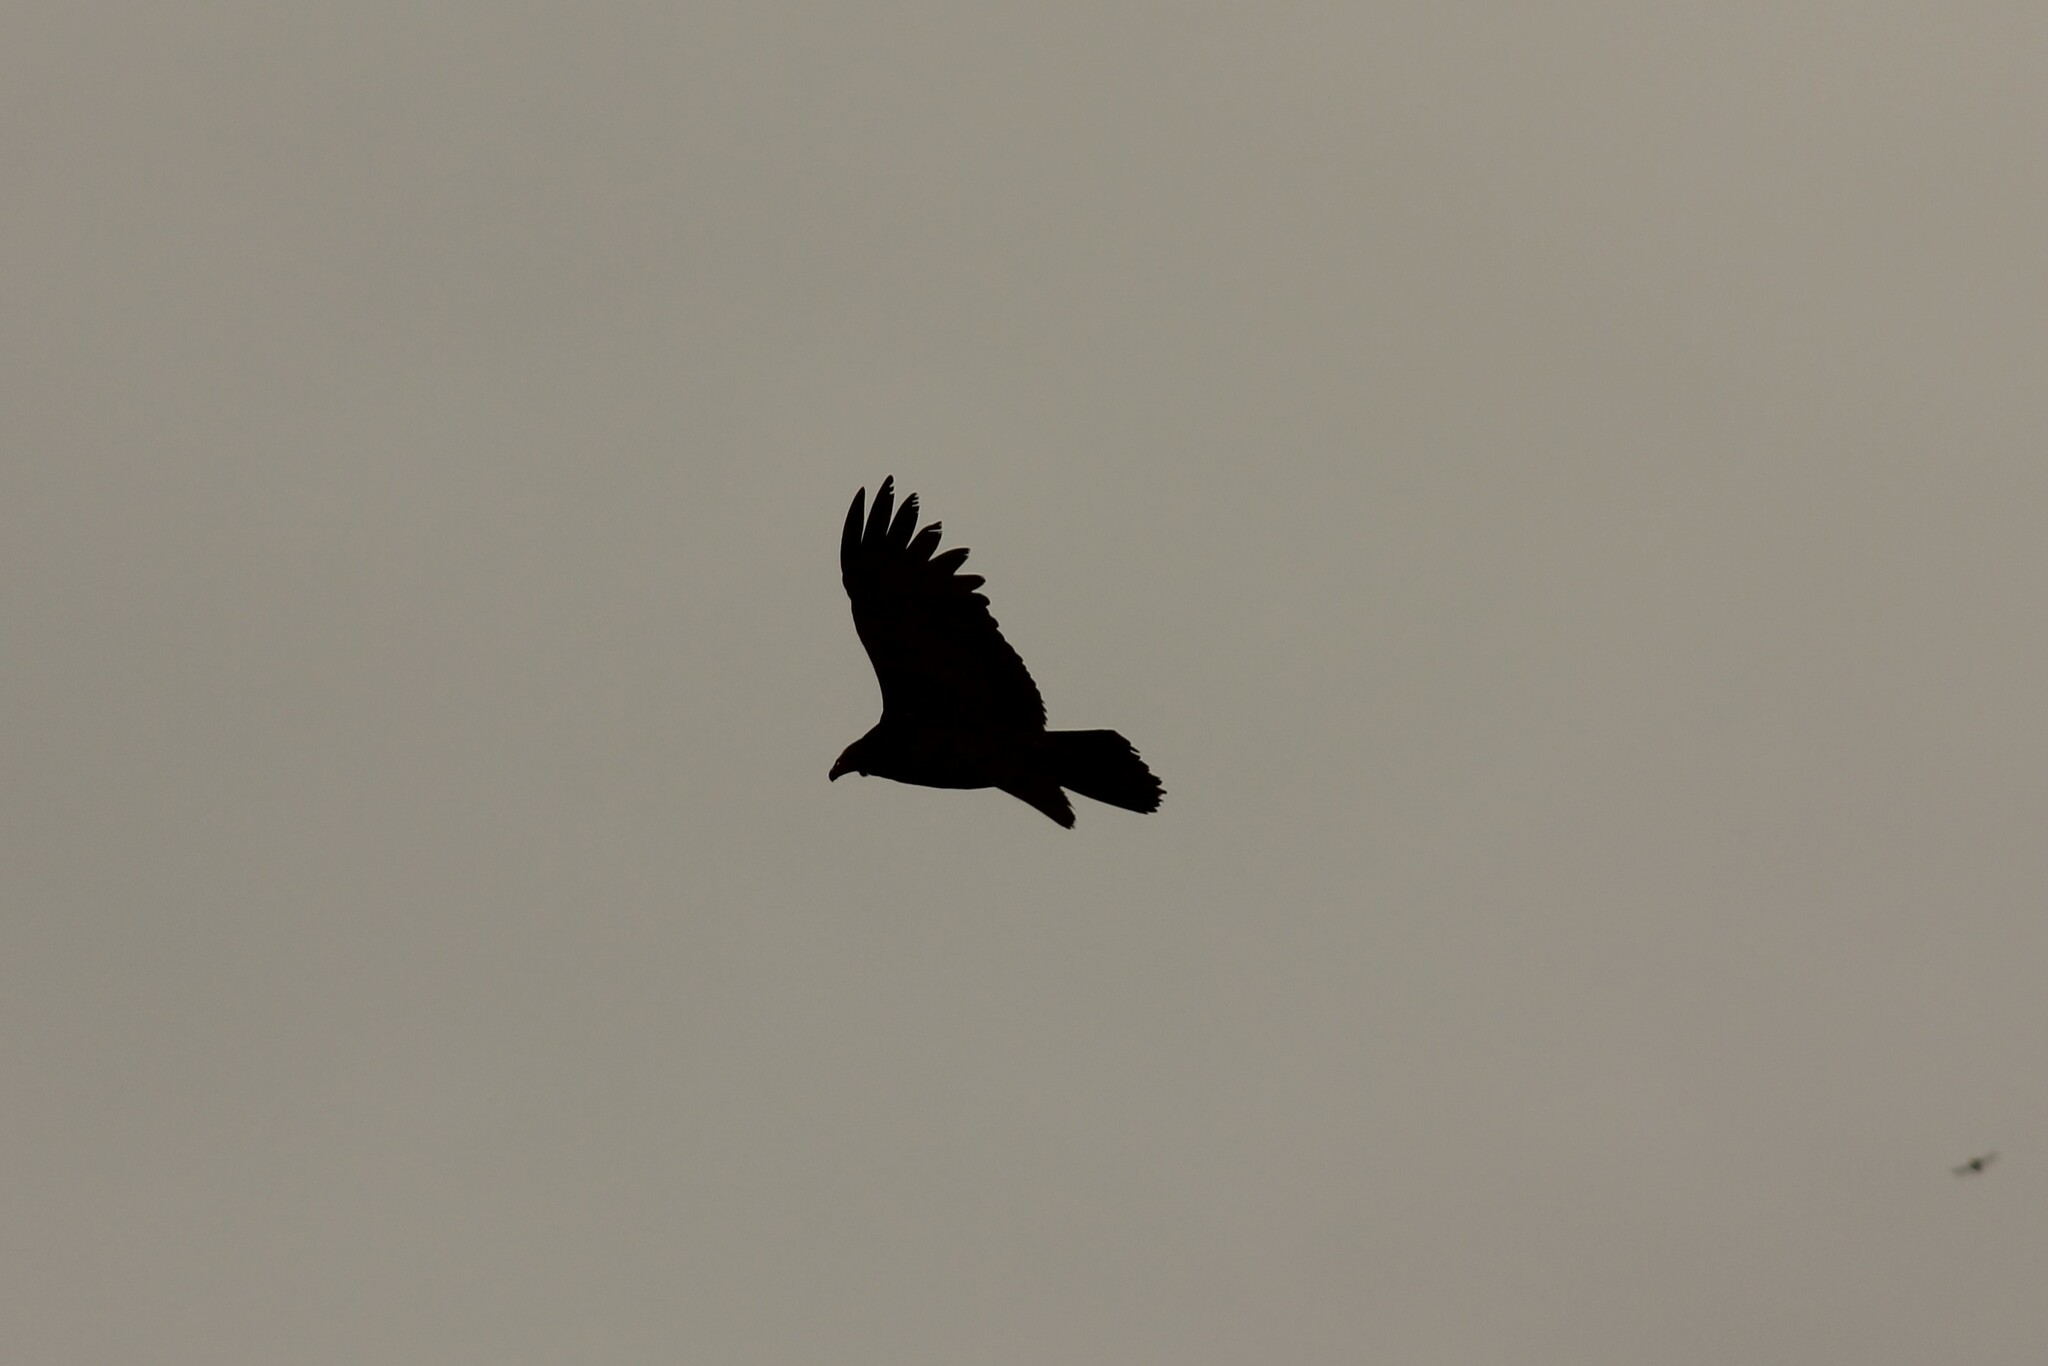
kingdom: Animalia
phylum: Chordata
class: Aves
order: Accipitriformes
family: Cathartidae
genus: Cathartes
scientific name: Cathartes aura
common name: Turkey vulture
